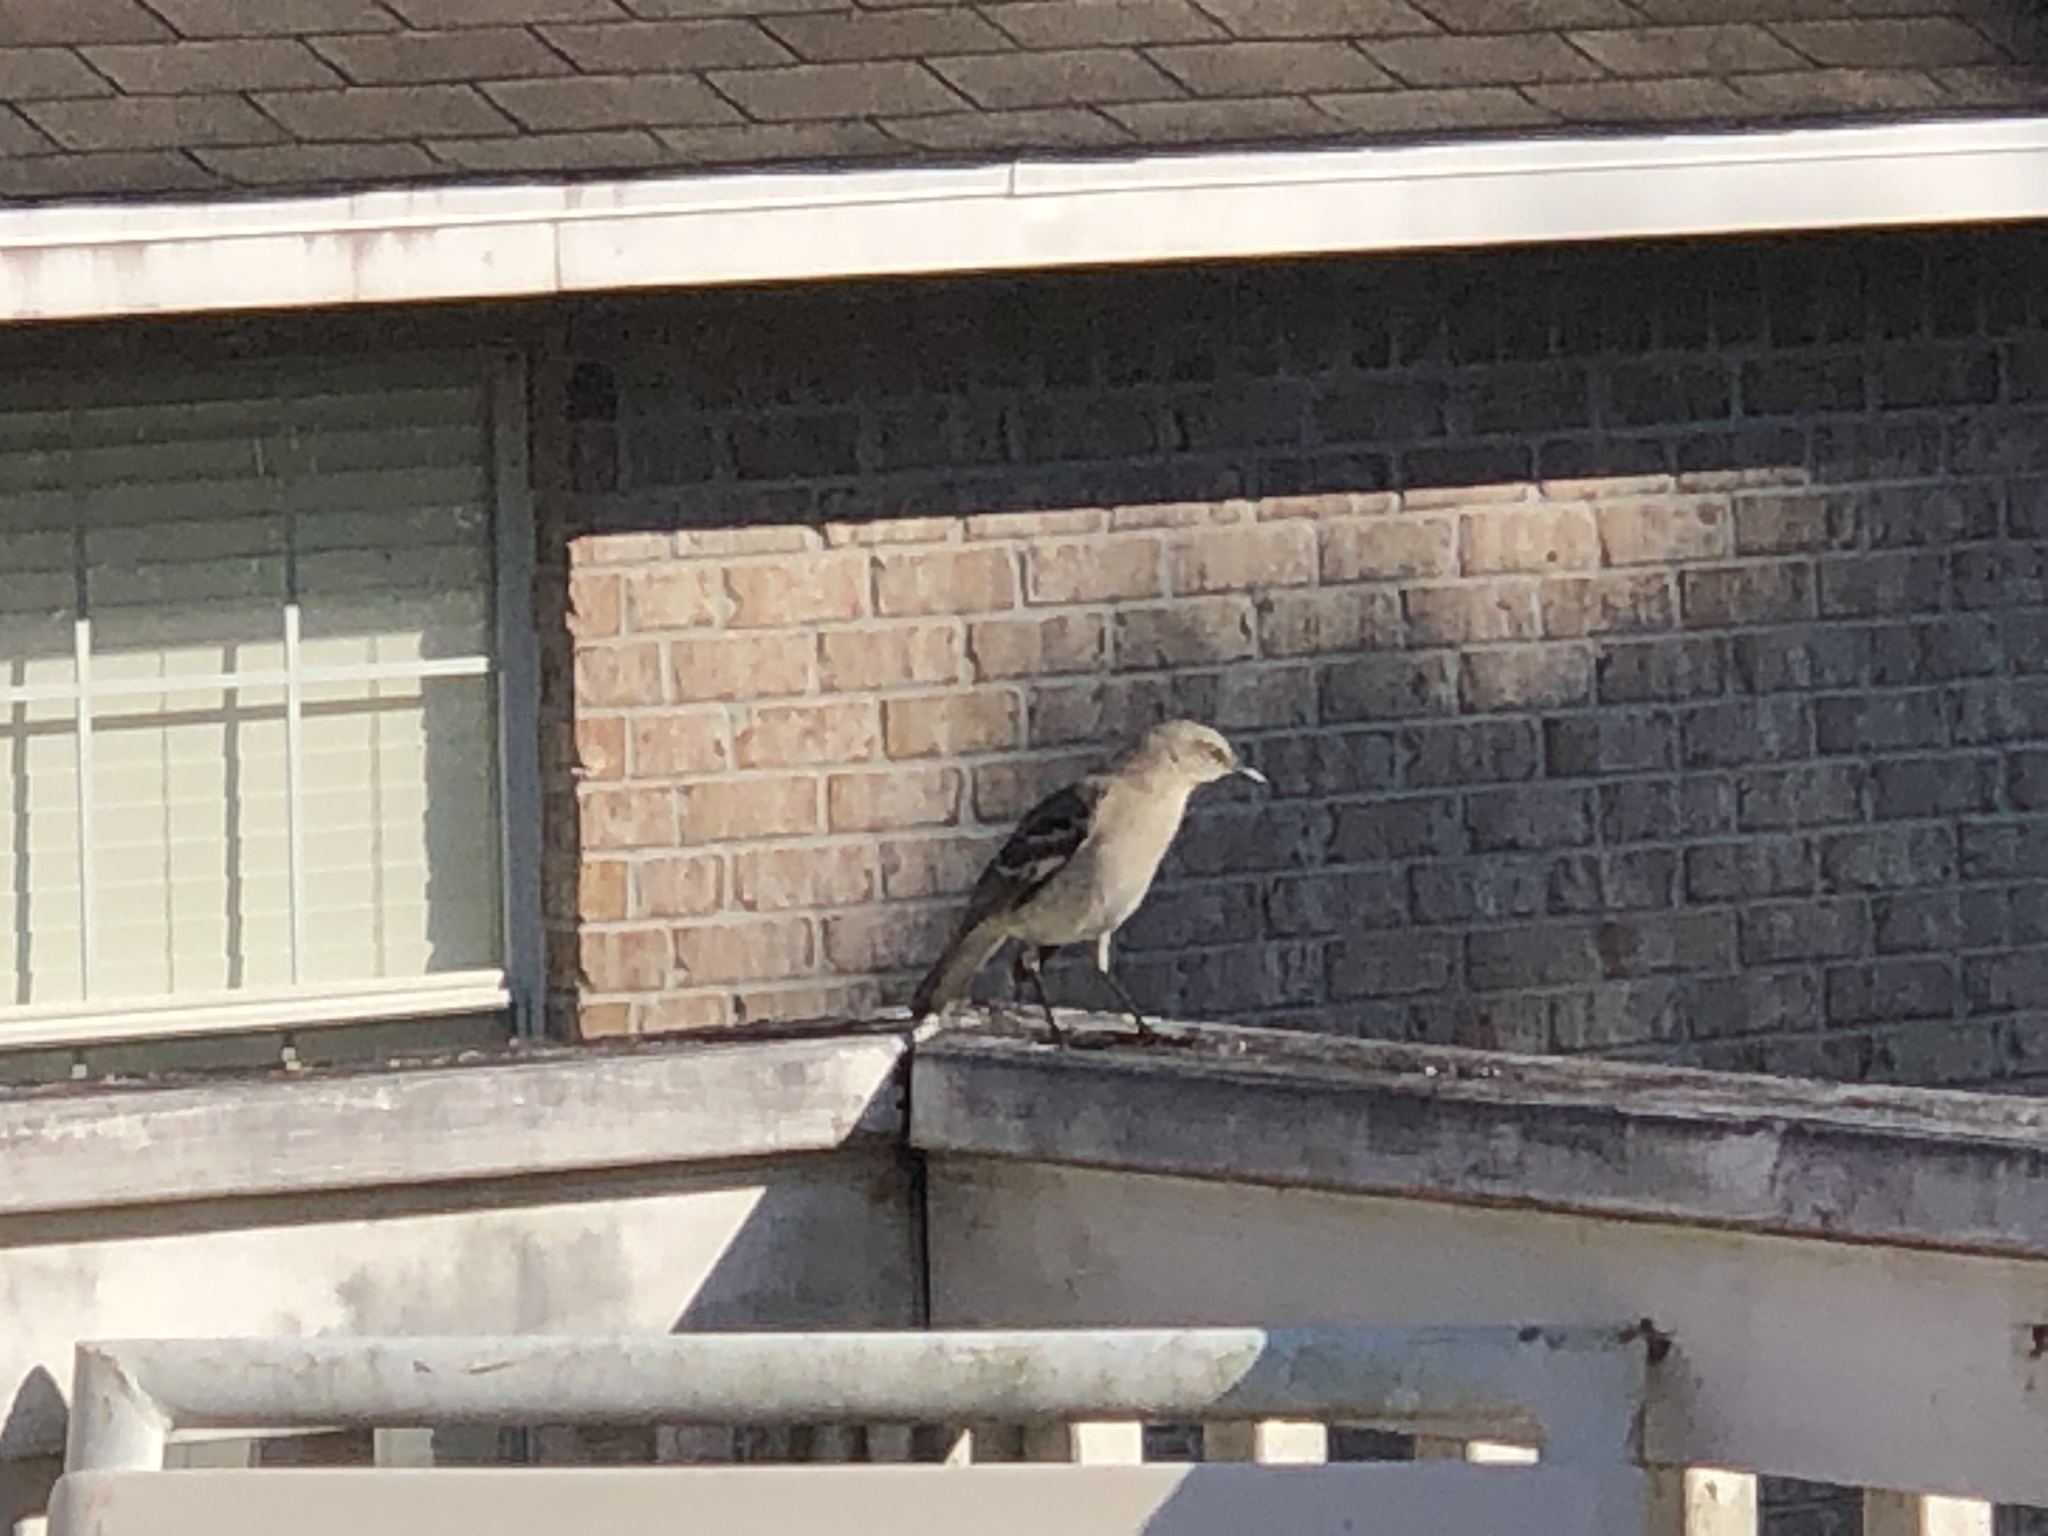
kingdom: Animalia
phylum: Chordata
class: Aves
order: Passeriformes
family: Mimidae
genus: Mimus
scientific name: Mimus polyglottos
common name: Northern mockingbird
